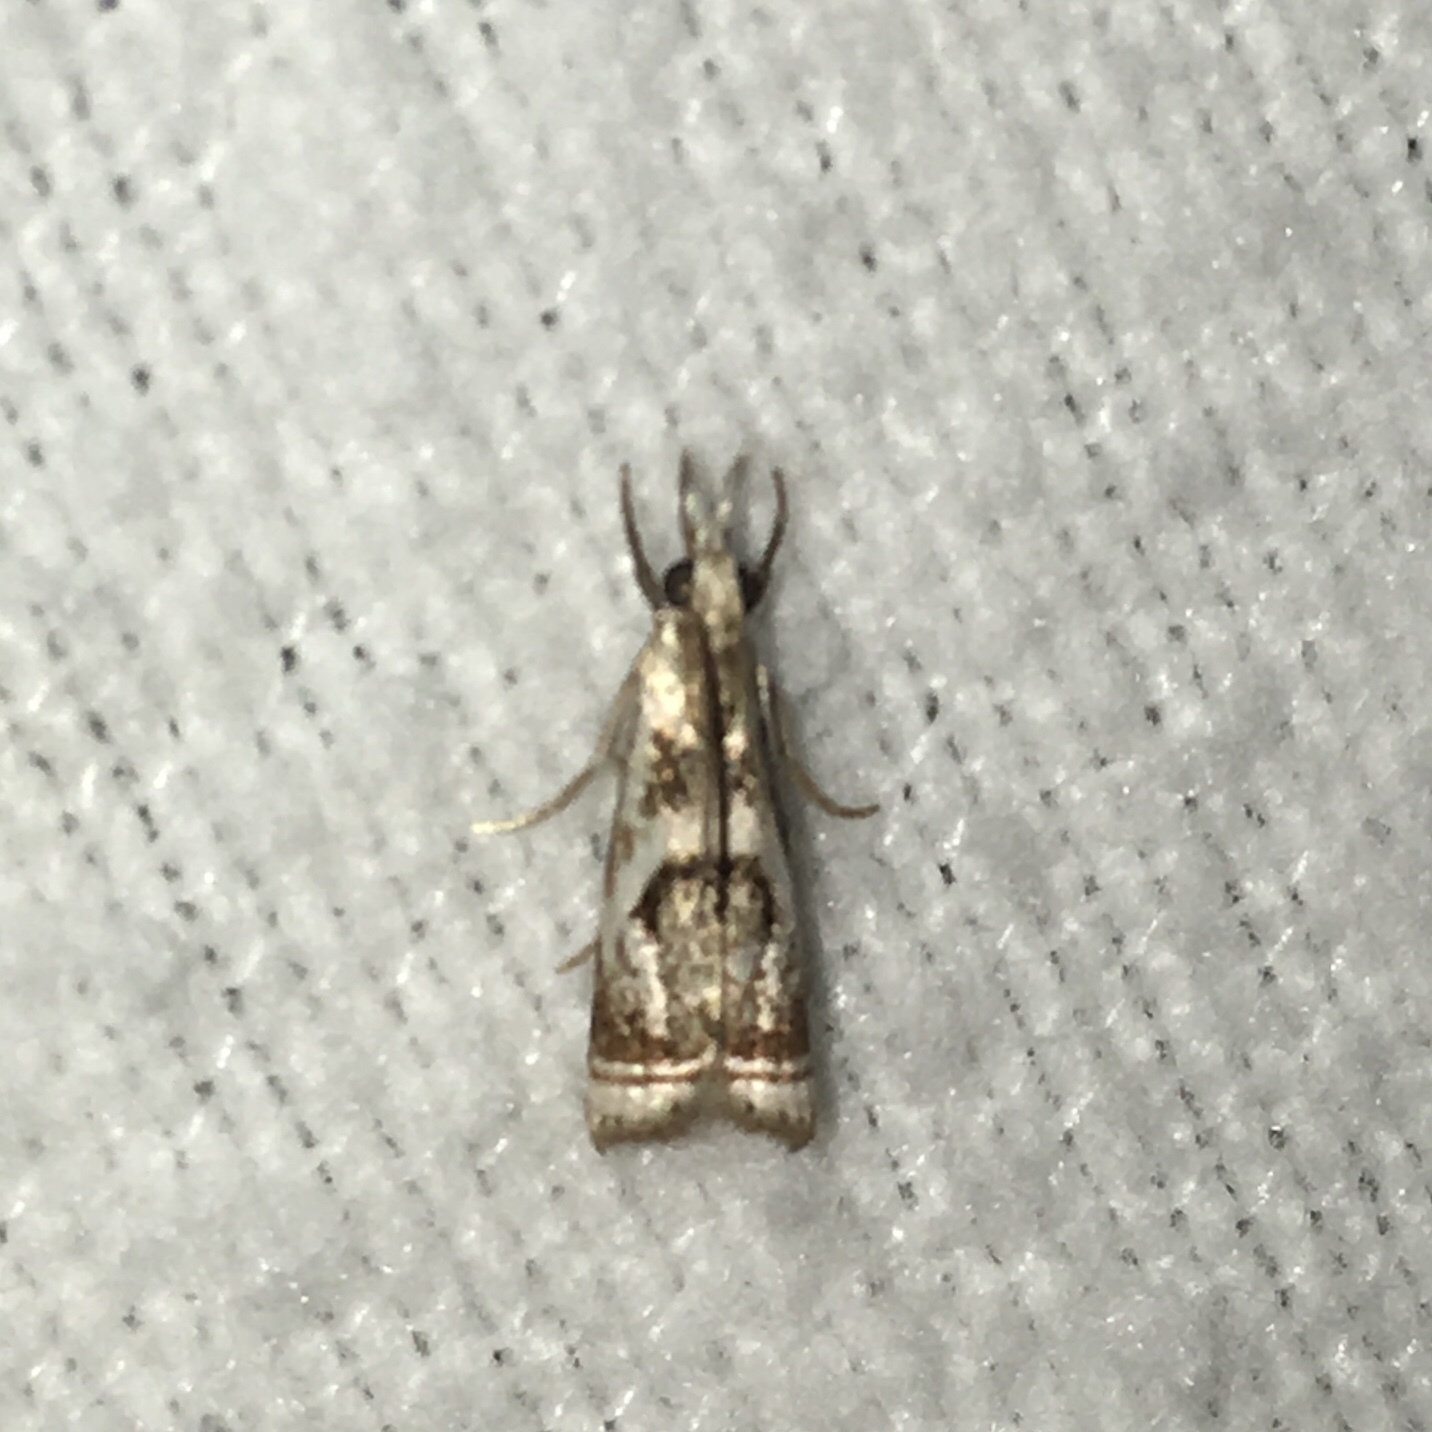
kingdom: Animalia
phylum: Arthropoda
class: Insecta
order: Lepidoptera
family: Crambidae
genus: Microcrambus
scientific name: Microcrambus elegans
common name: Elegant grass-veneer
